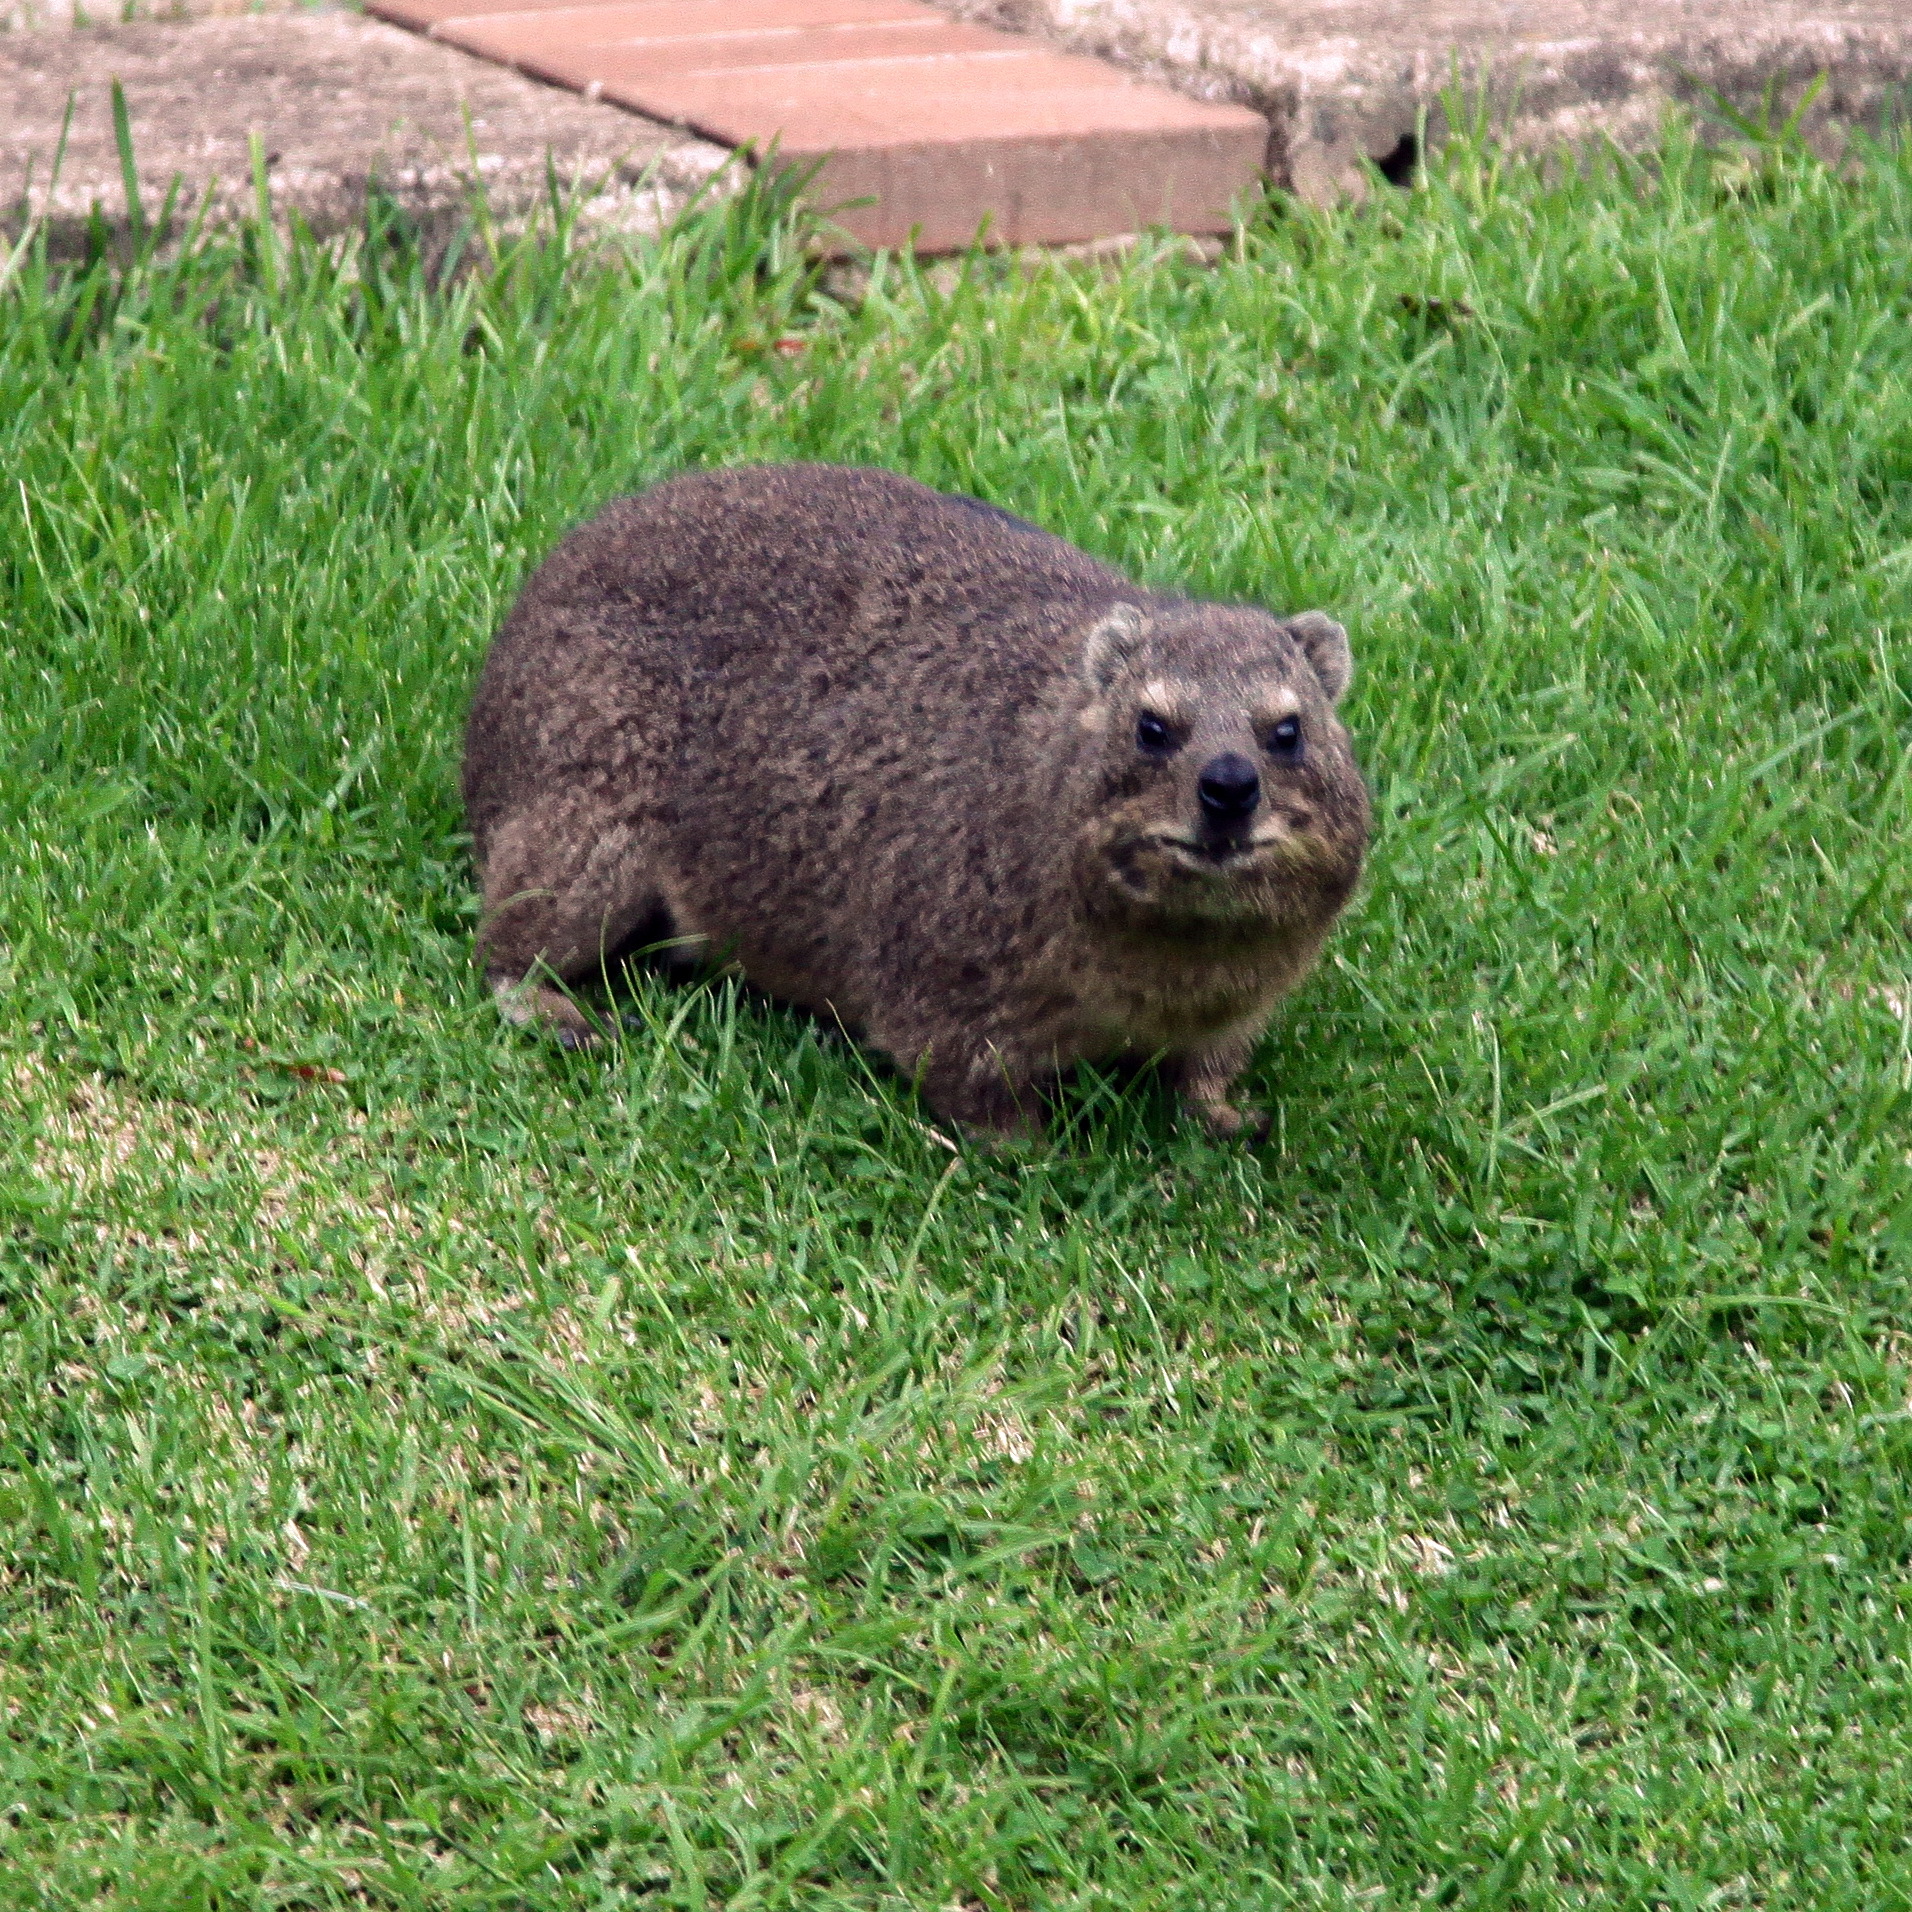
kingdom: Animalia
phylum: Chordata
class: Mammalia
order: Hyracoidea
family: Procaviidae
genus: Procavia
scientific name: Procavia capensis
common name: Rock hyrax
